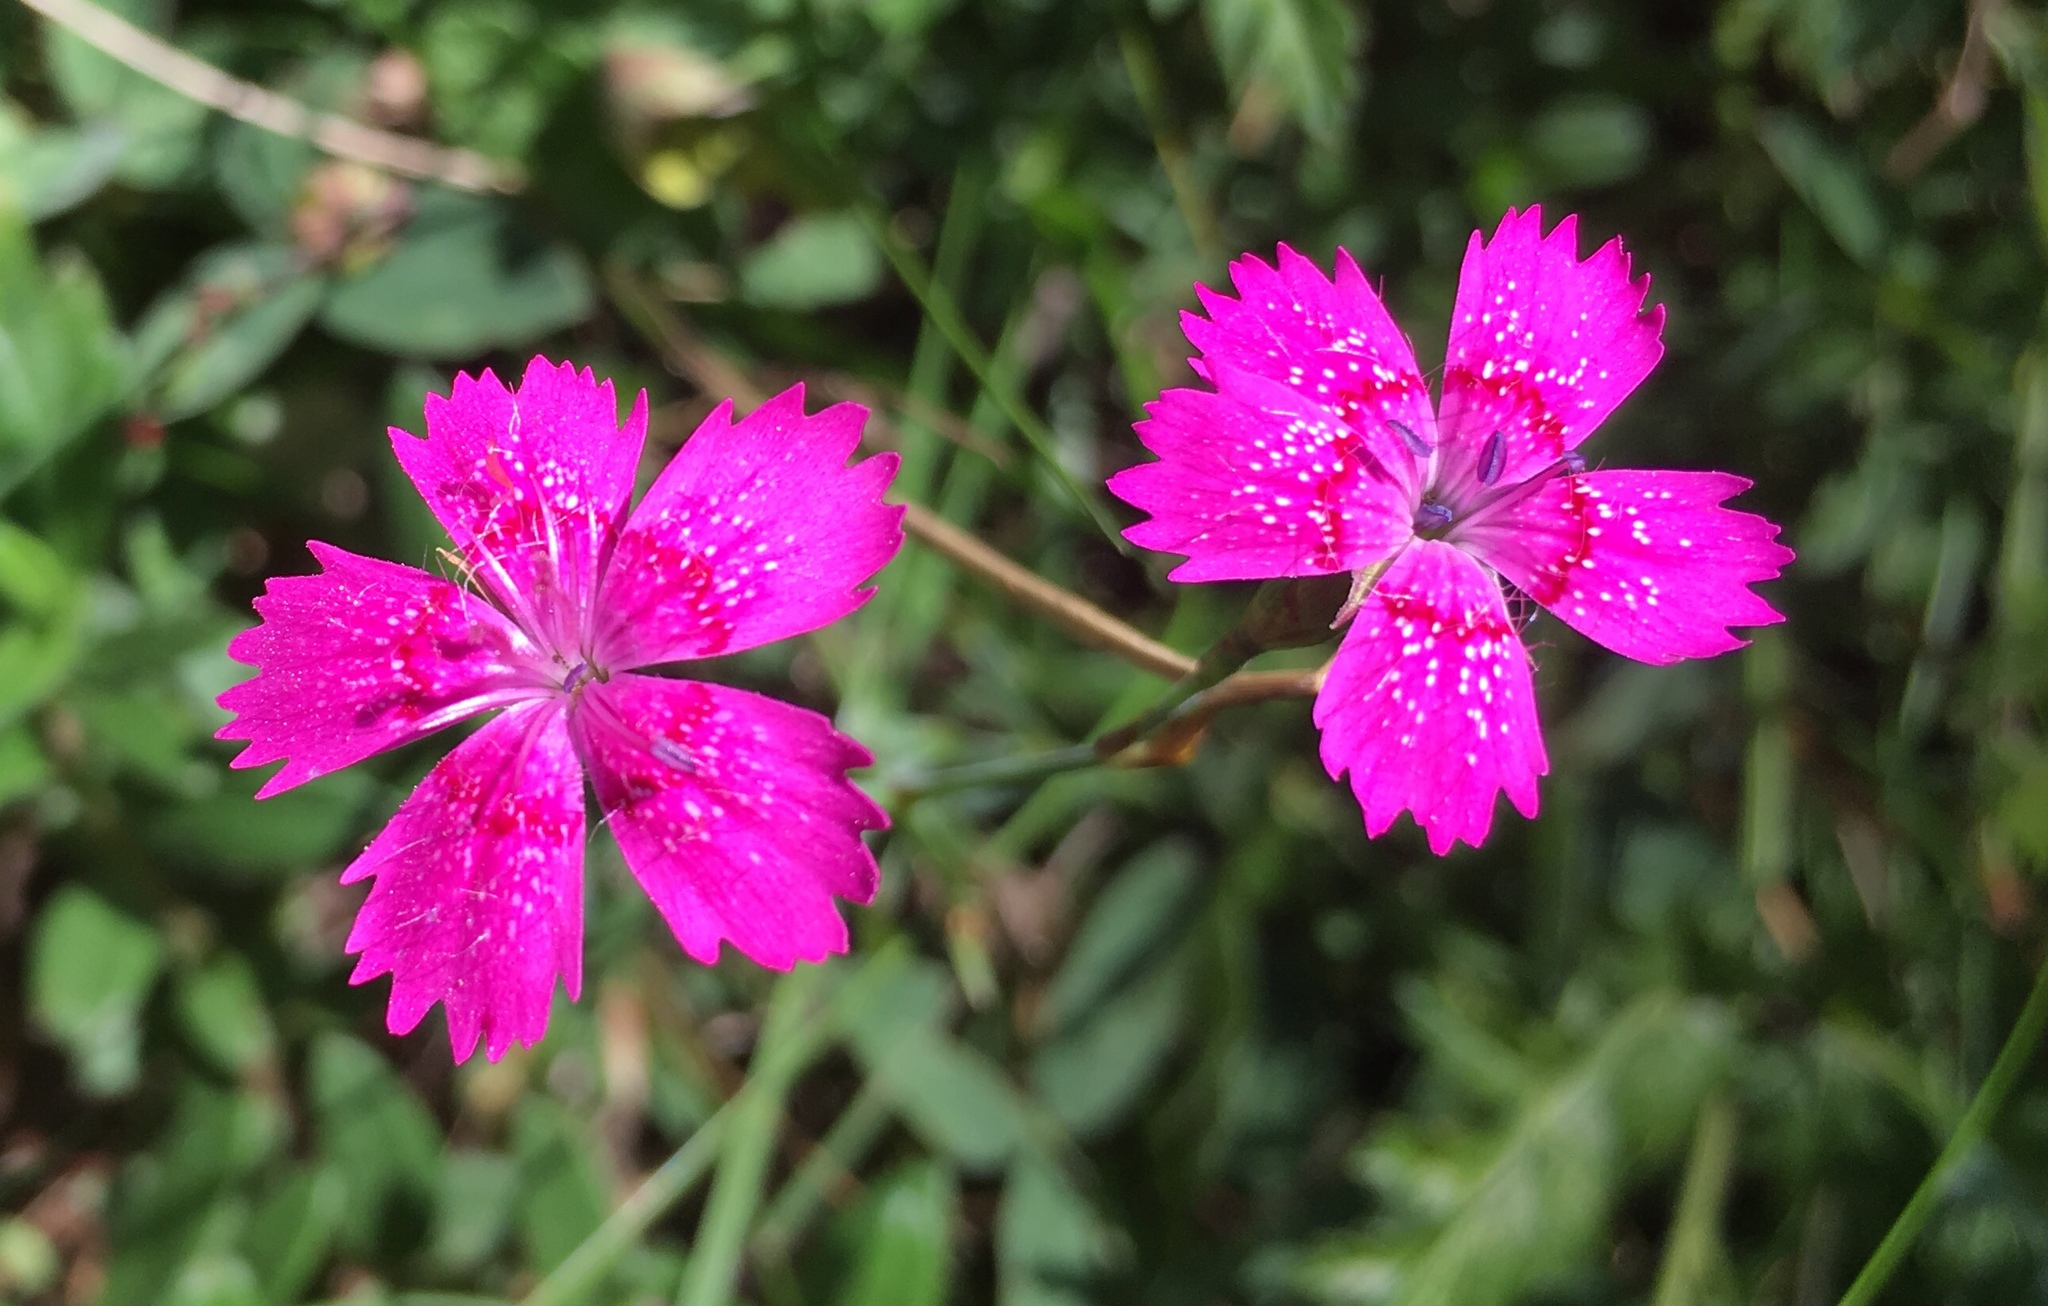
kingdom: Plantae
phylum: Tracheophyta
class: Magnoliopsida
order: Caryophyllales
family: Caryophyllaceae
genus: Dianthus
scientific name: Dianthus deltoides
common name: Maiden pink
